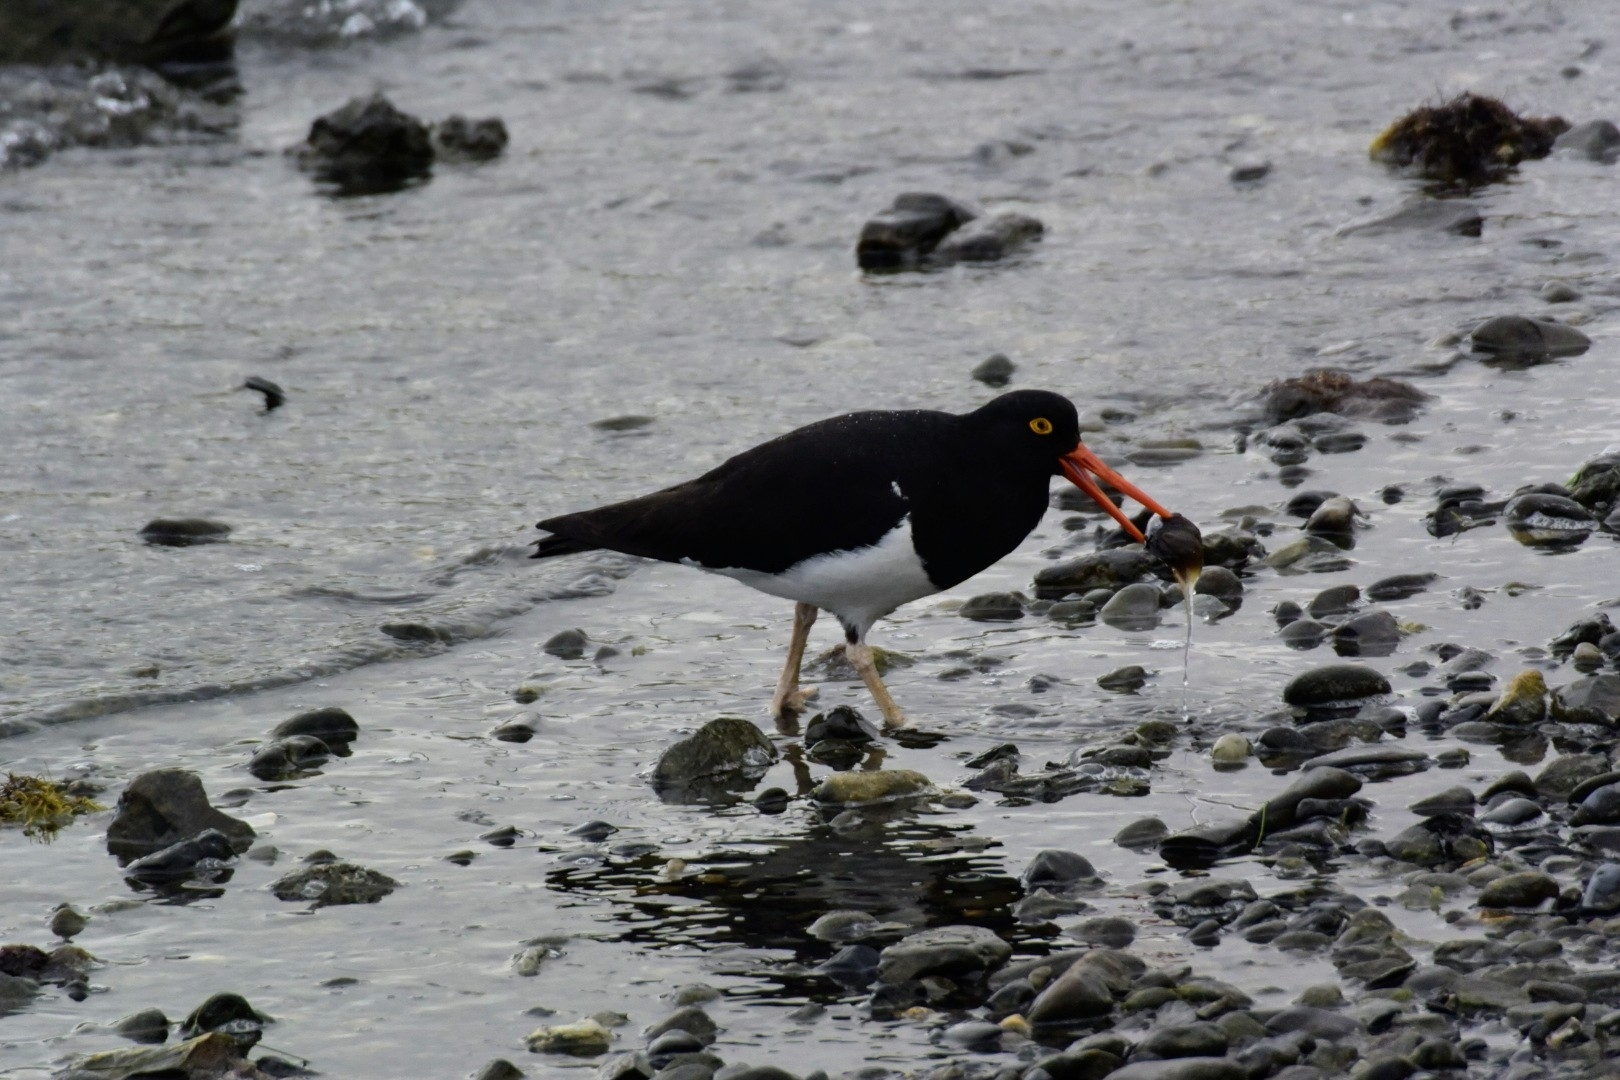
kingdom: Animalia
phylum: Chordata
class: Aves
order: Charadriiformes
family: Haematopodidae
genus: Haematopus
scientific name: Haematopus leucopodus
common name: Magellanic oystercatcher
